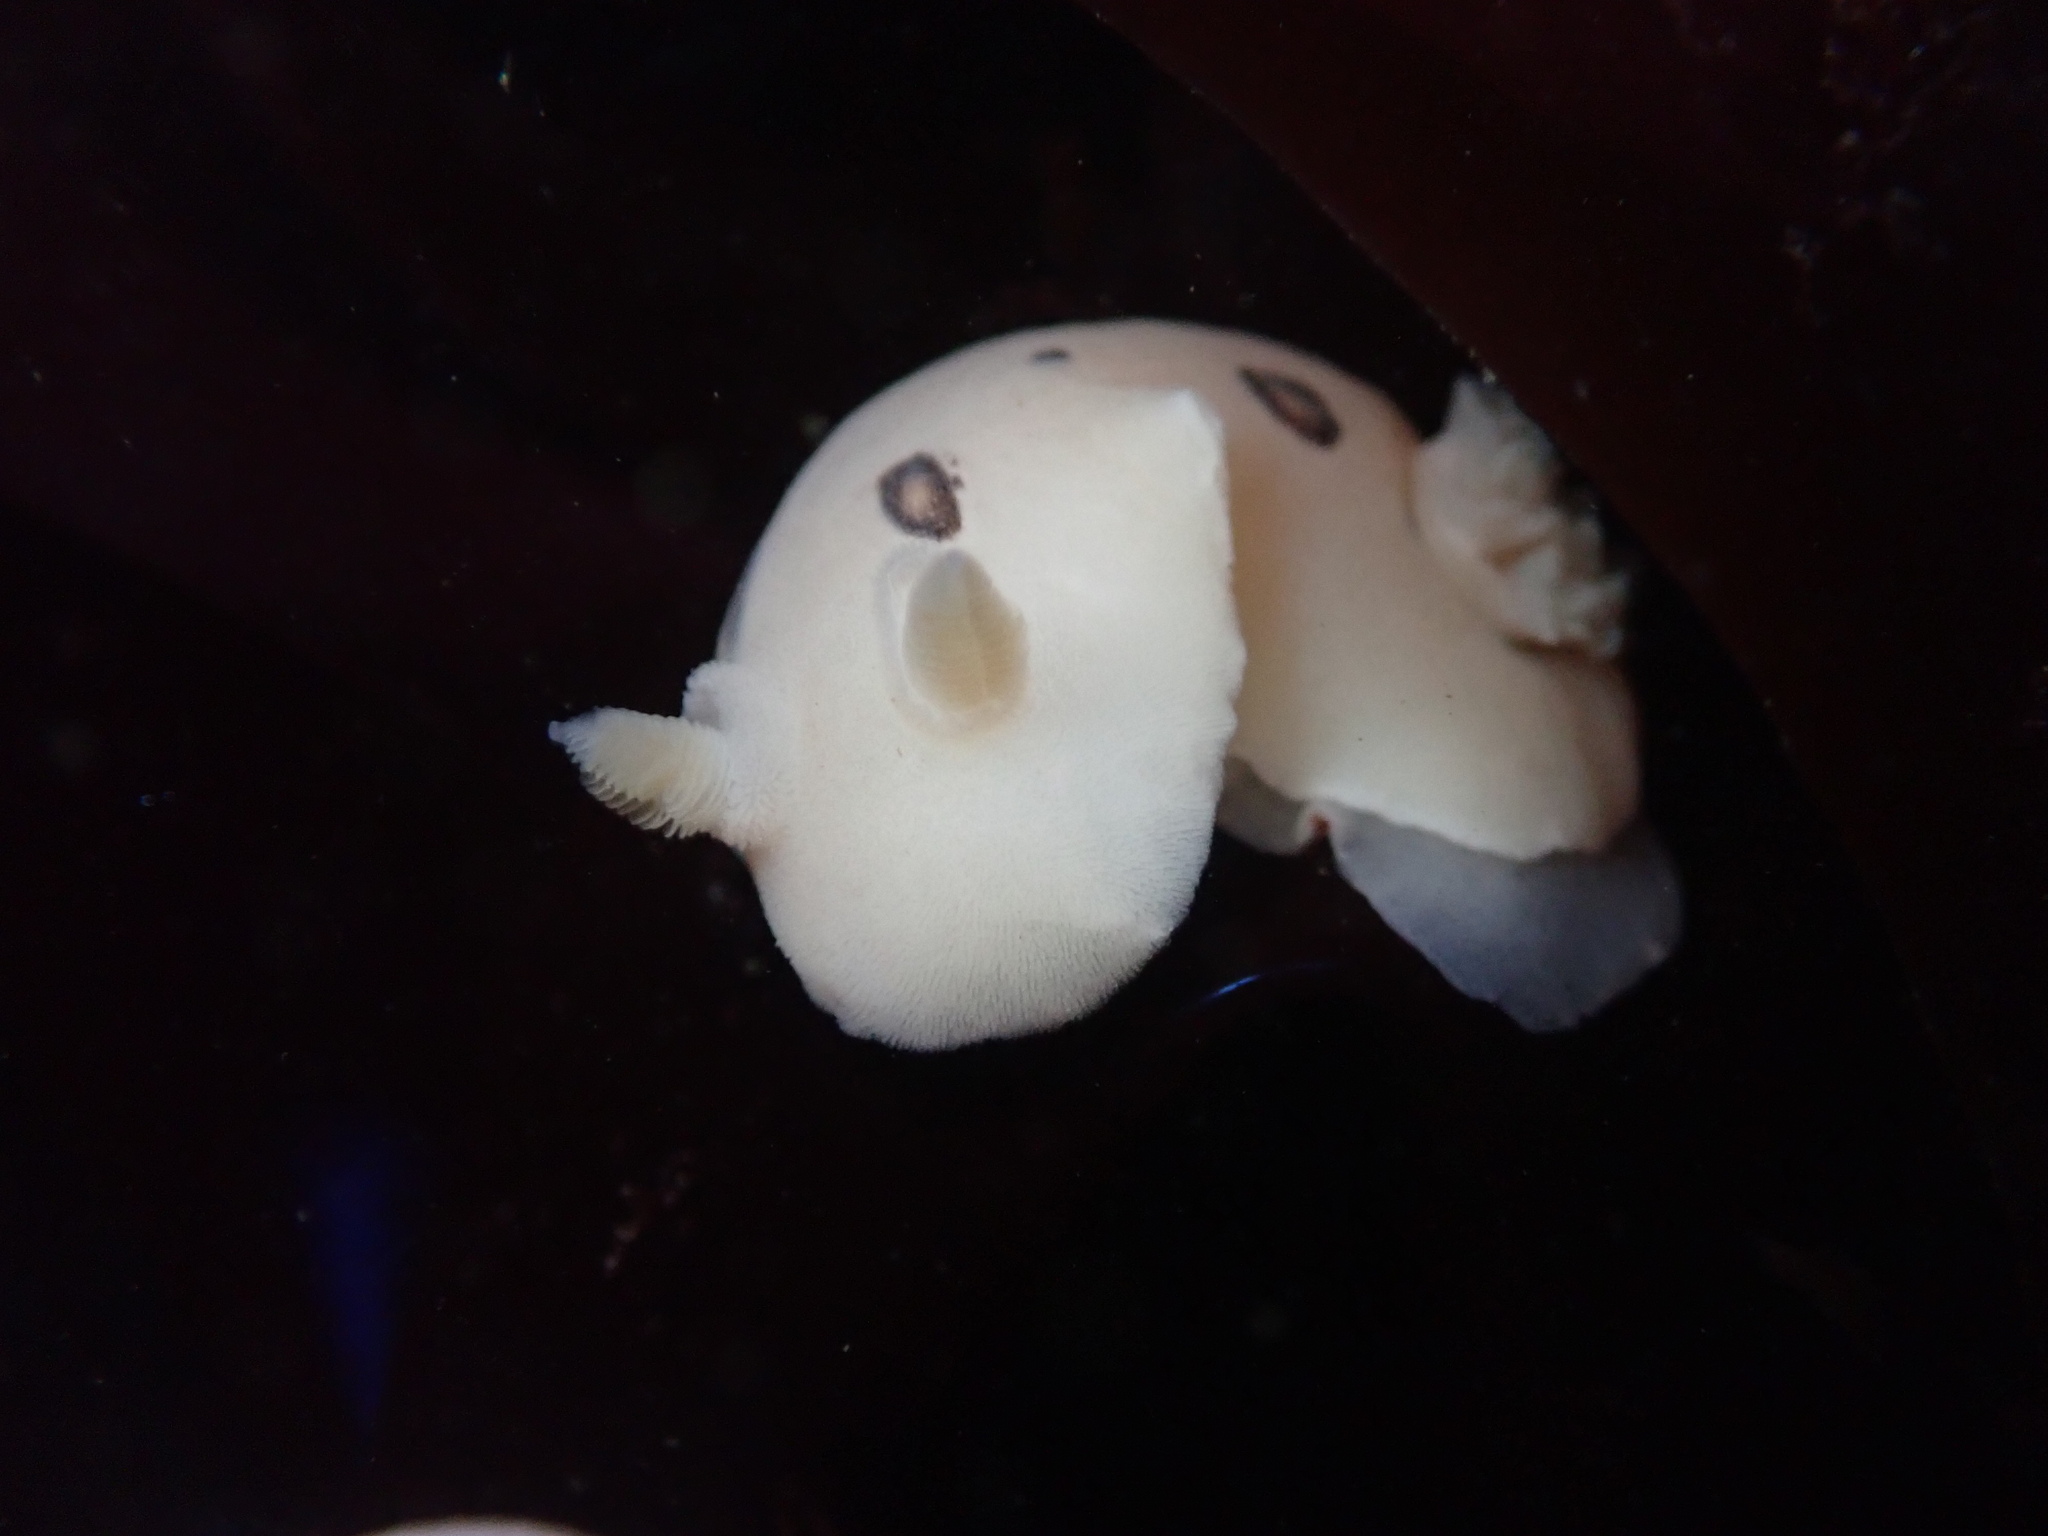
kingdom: Animalia
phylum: Mollusca
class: Gastropoda
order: Nudibranchia
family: Discodorididae
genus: Diaulula
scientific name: Diaulula sandiegensis
